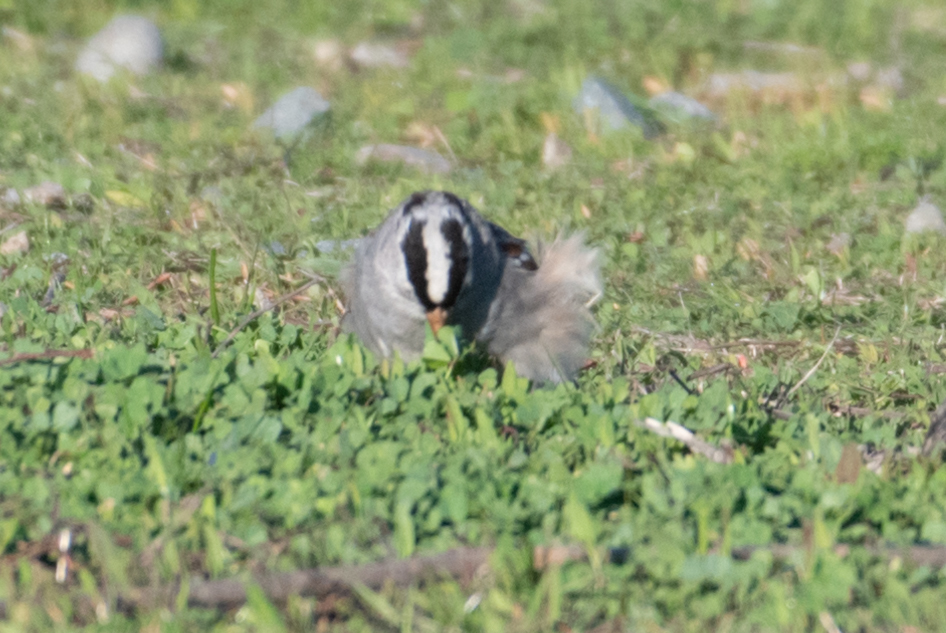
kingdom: Animalia
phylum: Chordata
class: Aves
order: Passeriformes
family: Passerellidae
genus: Zonotrichia
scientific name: Zonotrichia leucophrys
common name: White-crowned sparrow
